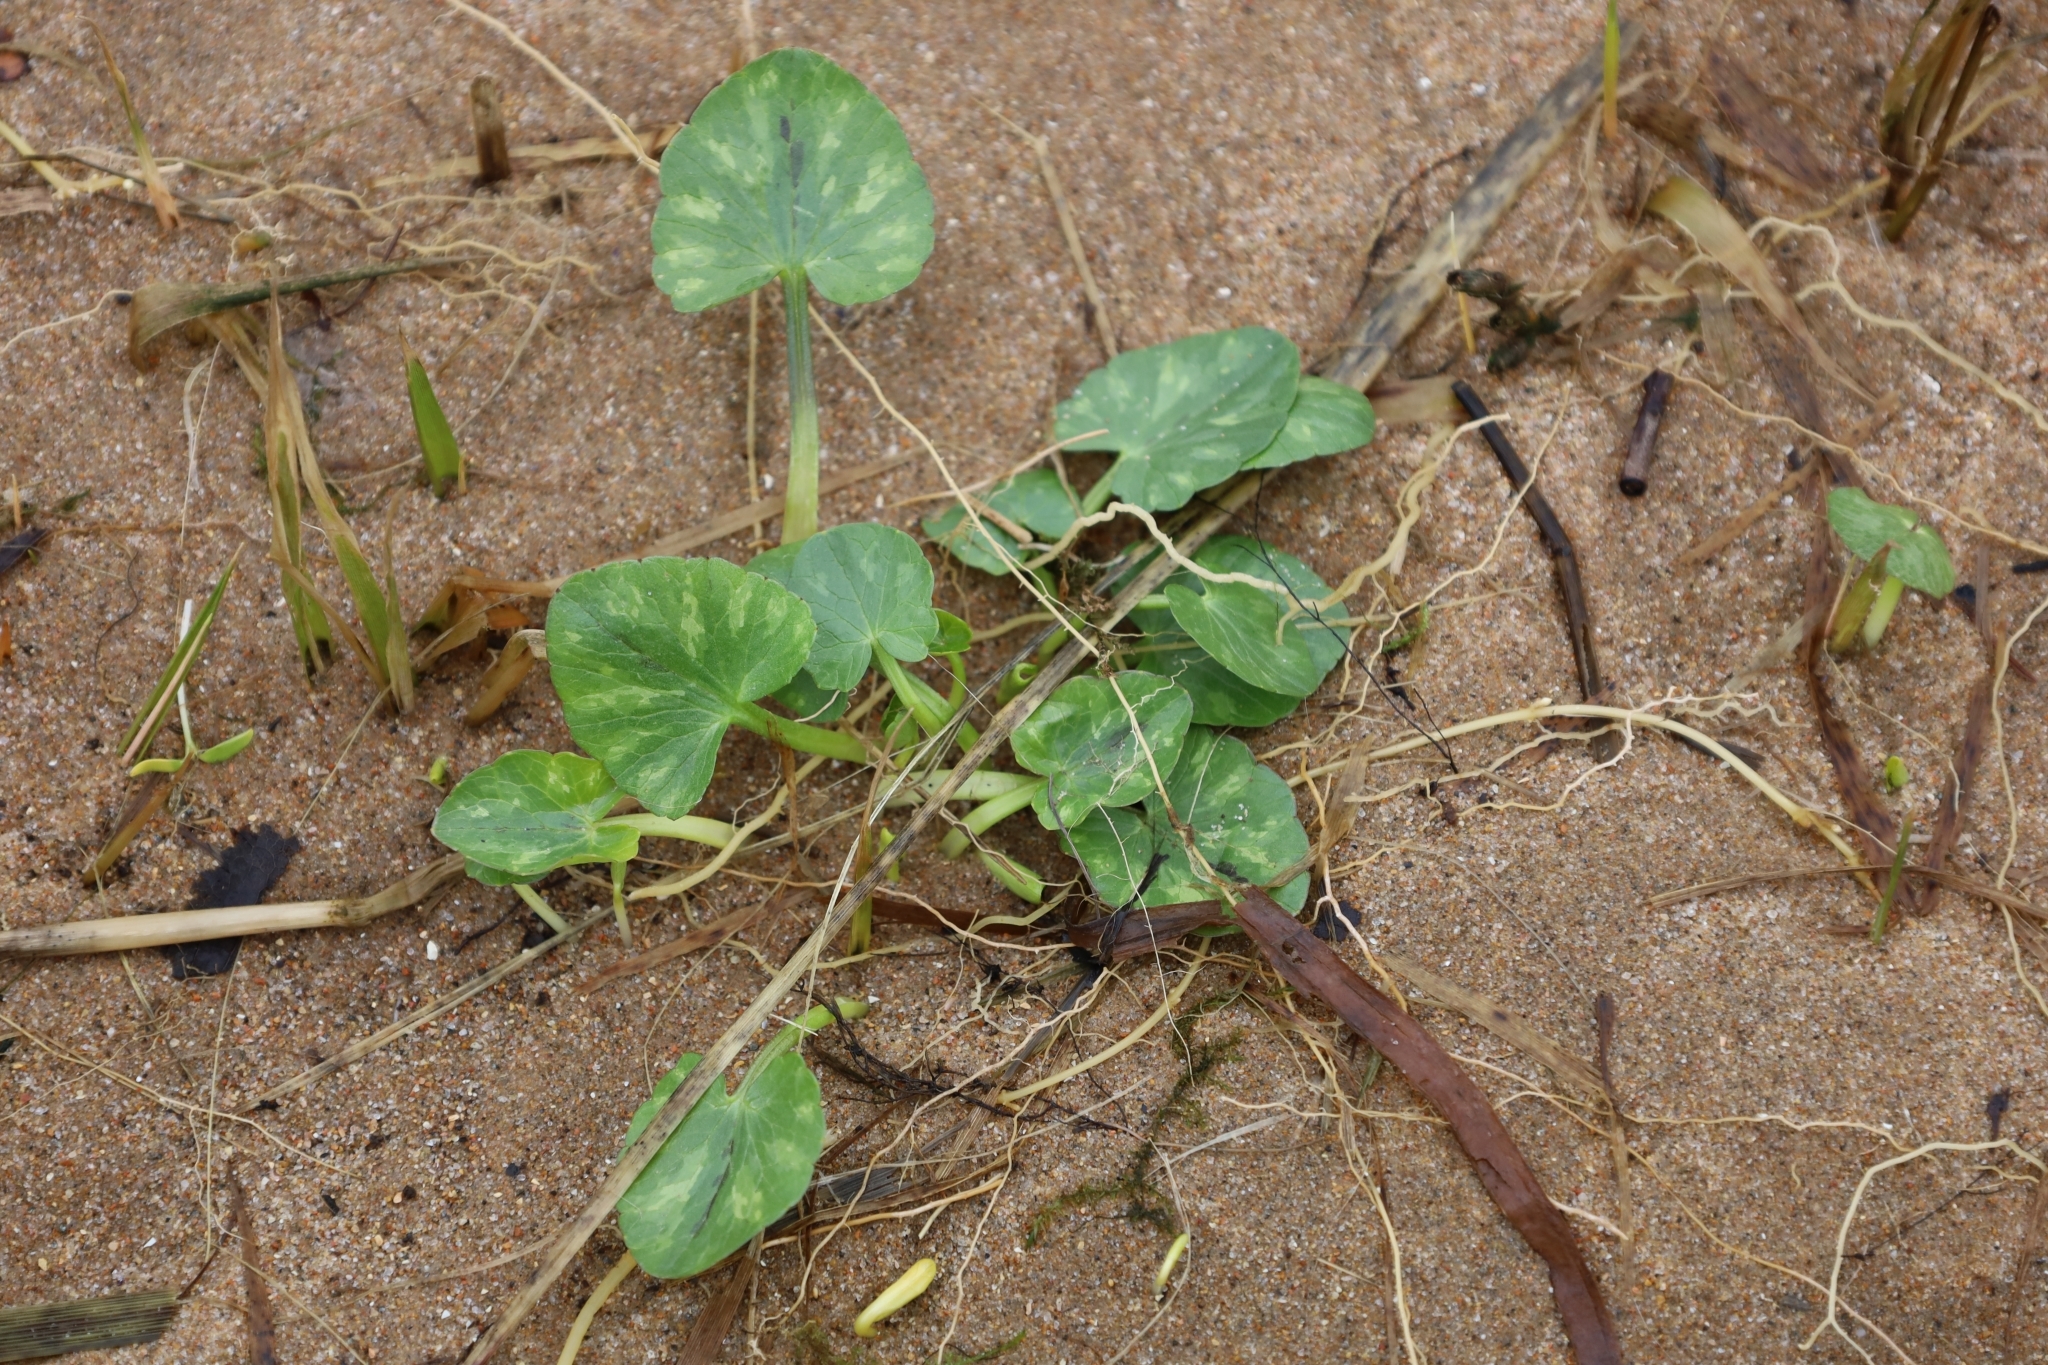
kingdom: Plantae
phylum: Tracheophyta
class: Magnoliopsida
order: Ranunculales
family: Ranunculaceae
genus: Ficaria
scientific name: Ficaria verna
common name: Lesser celandine
